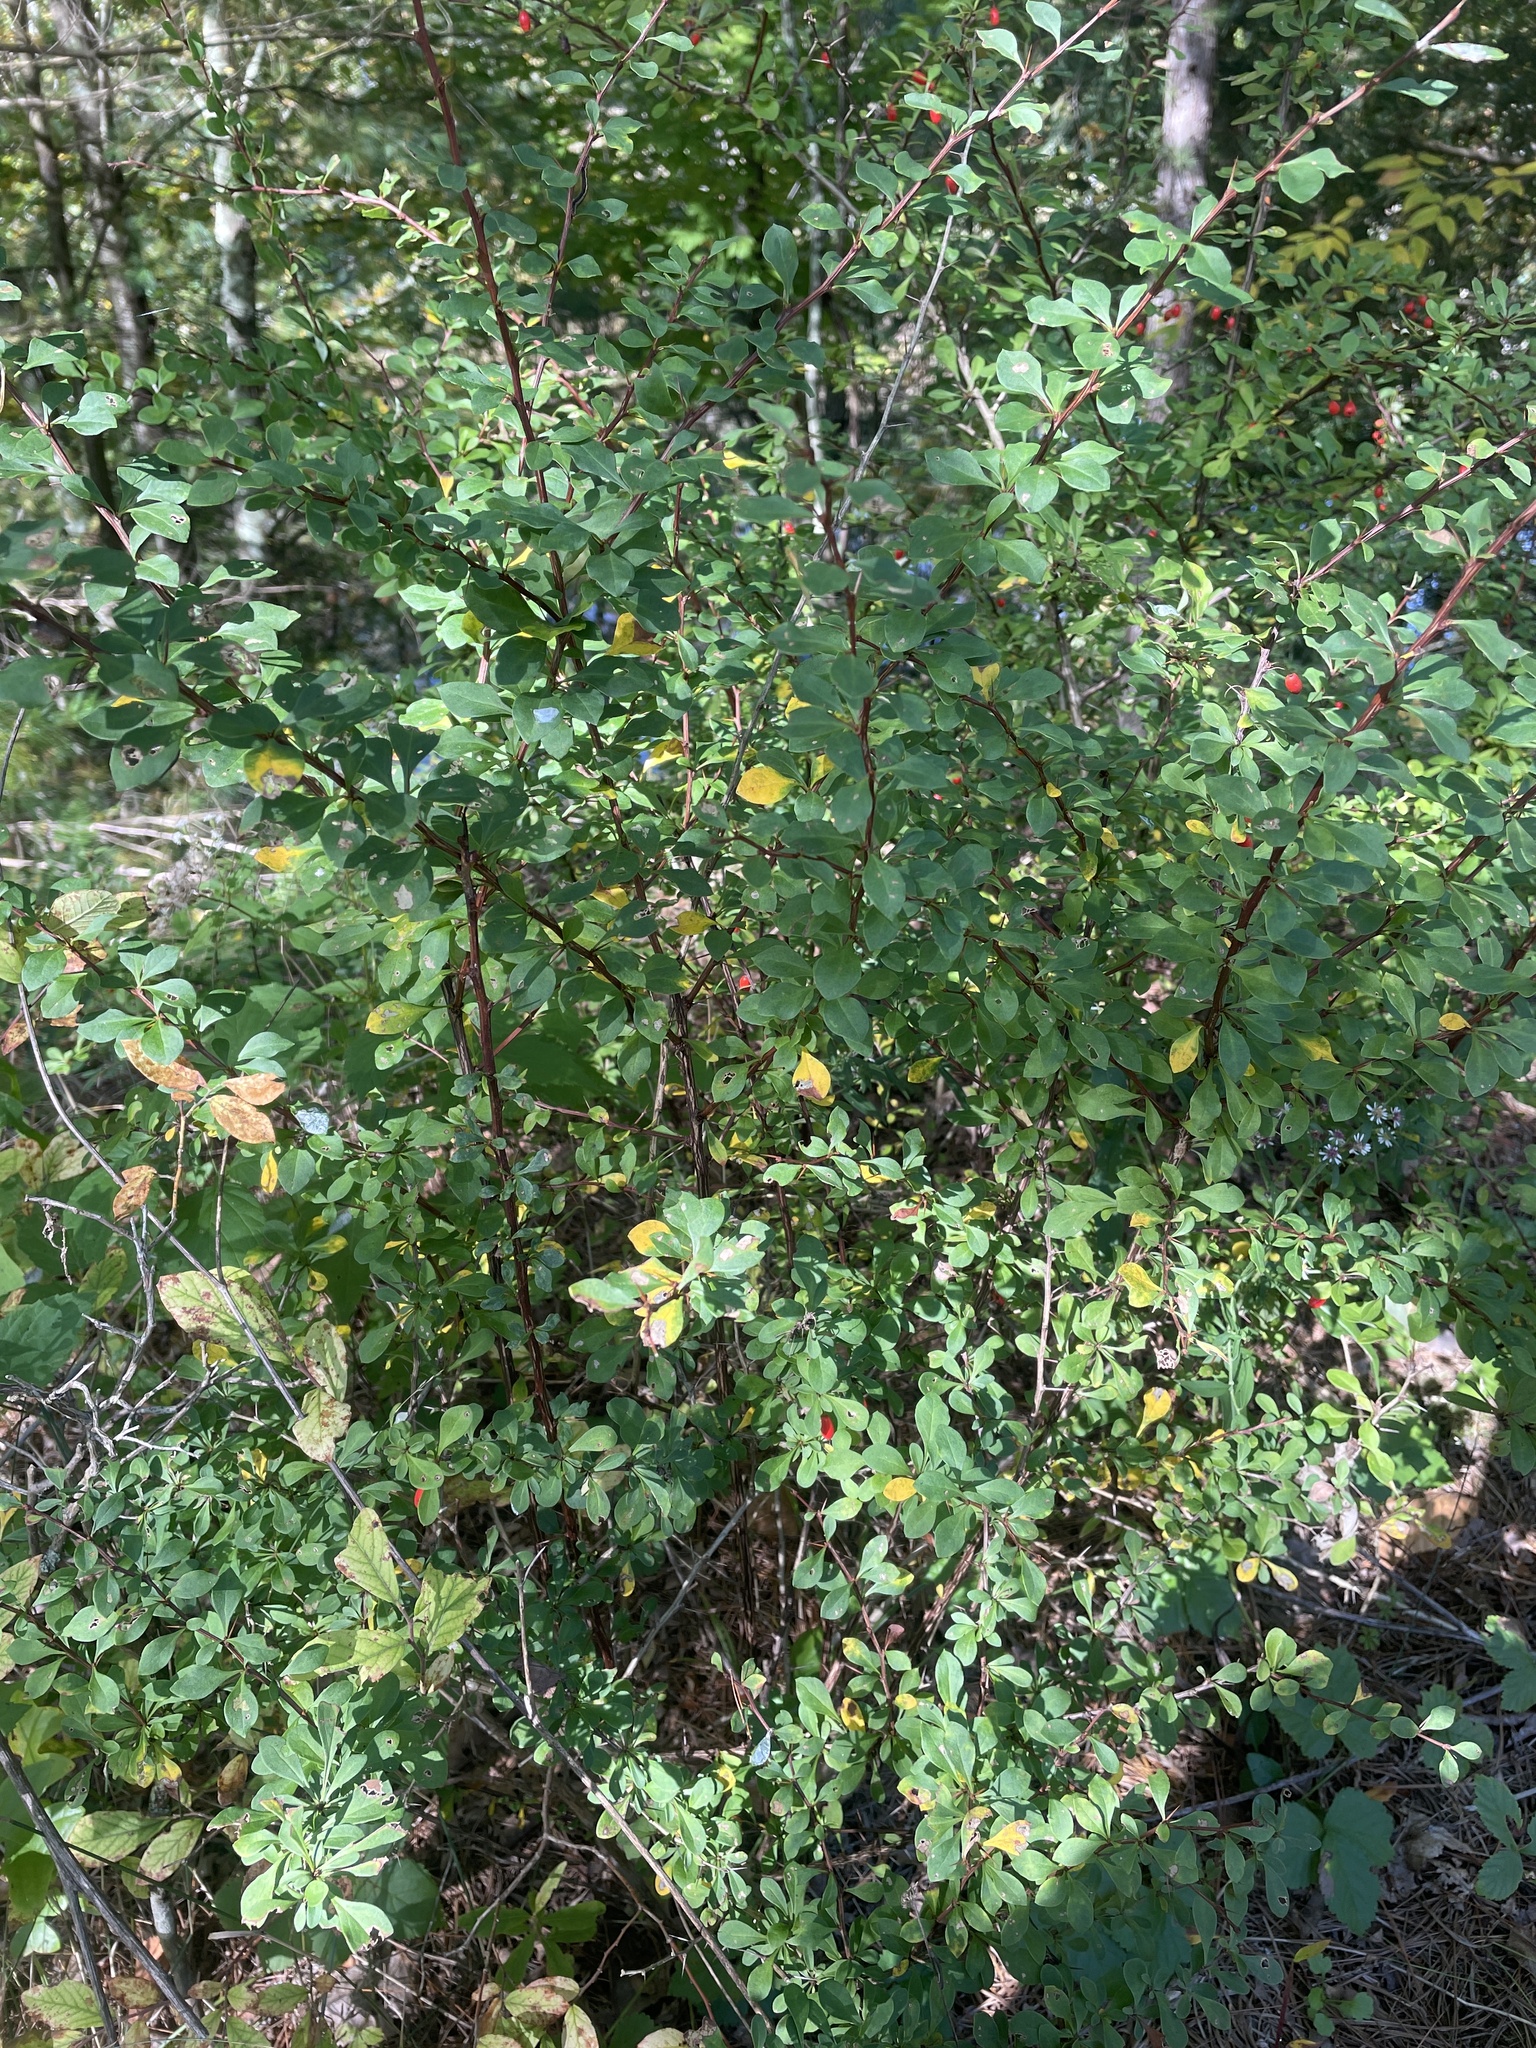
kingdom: Plantae
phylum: Tracheophyta
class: Magnoliopsida
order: Ranunculales
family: Berberidaceae
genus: Berberis
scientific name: Berberis thunbergii
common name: Japanese barberry
